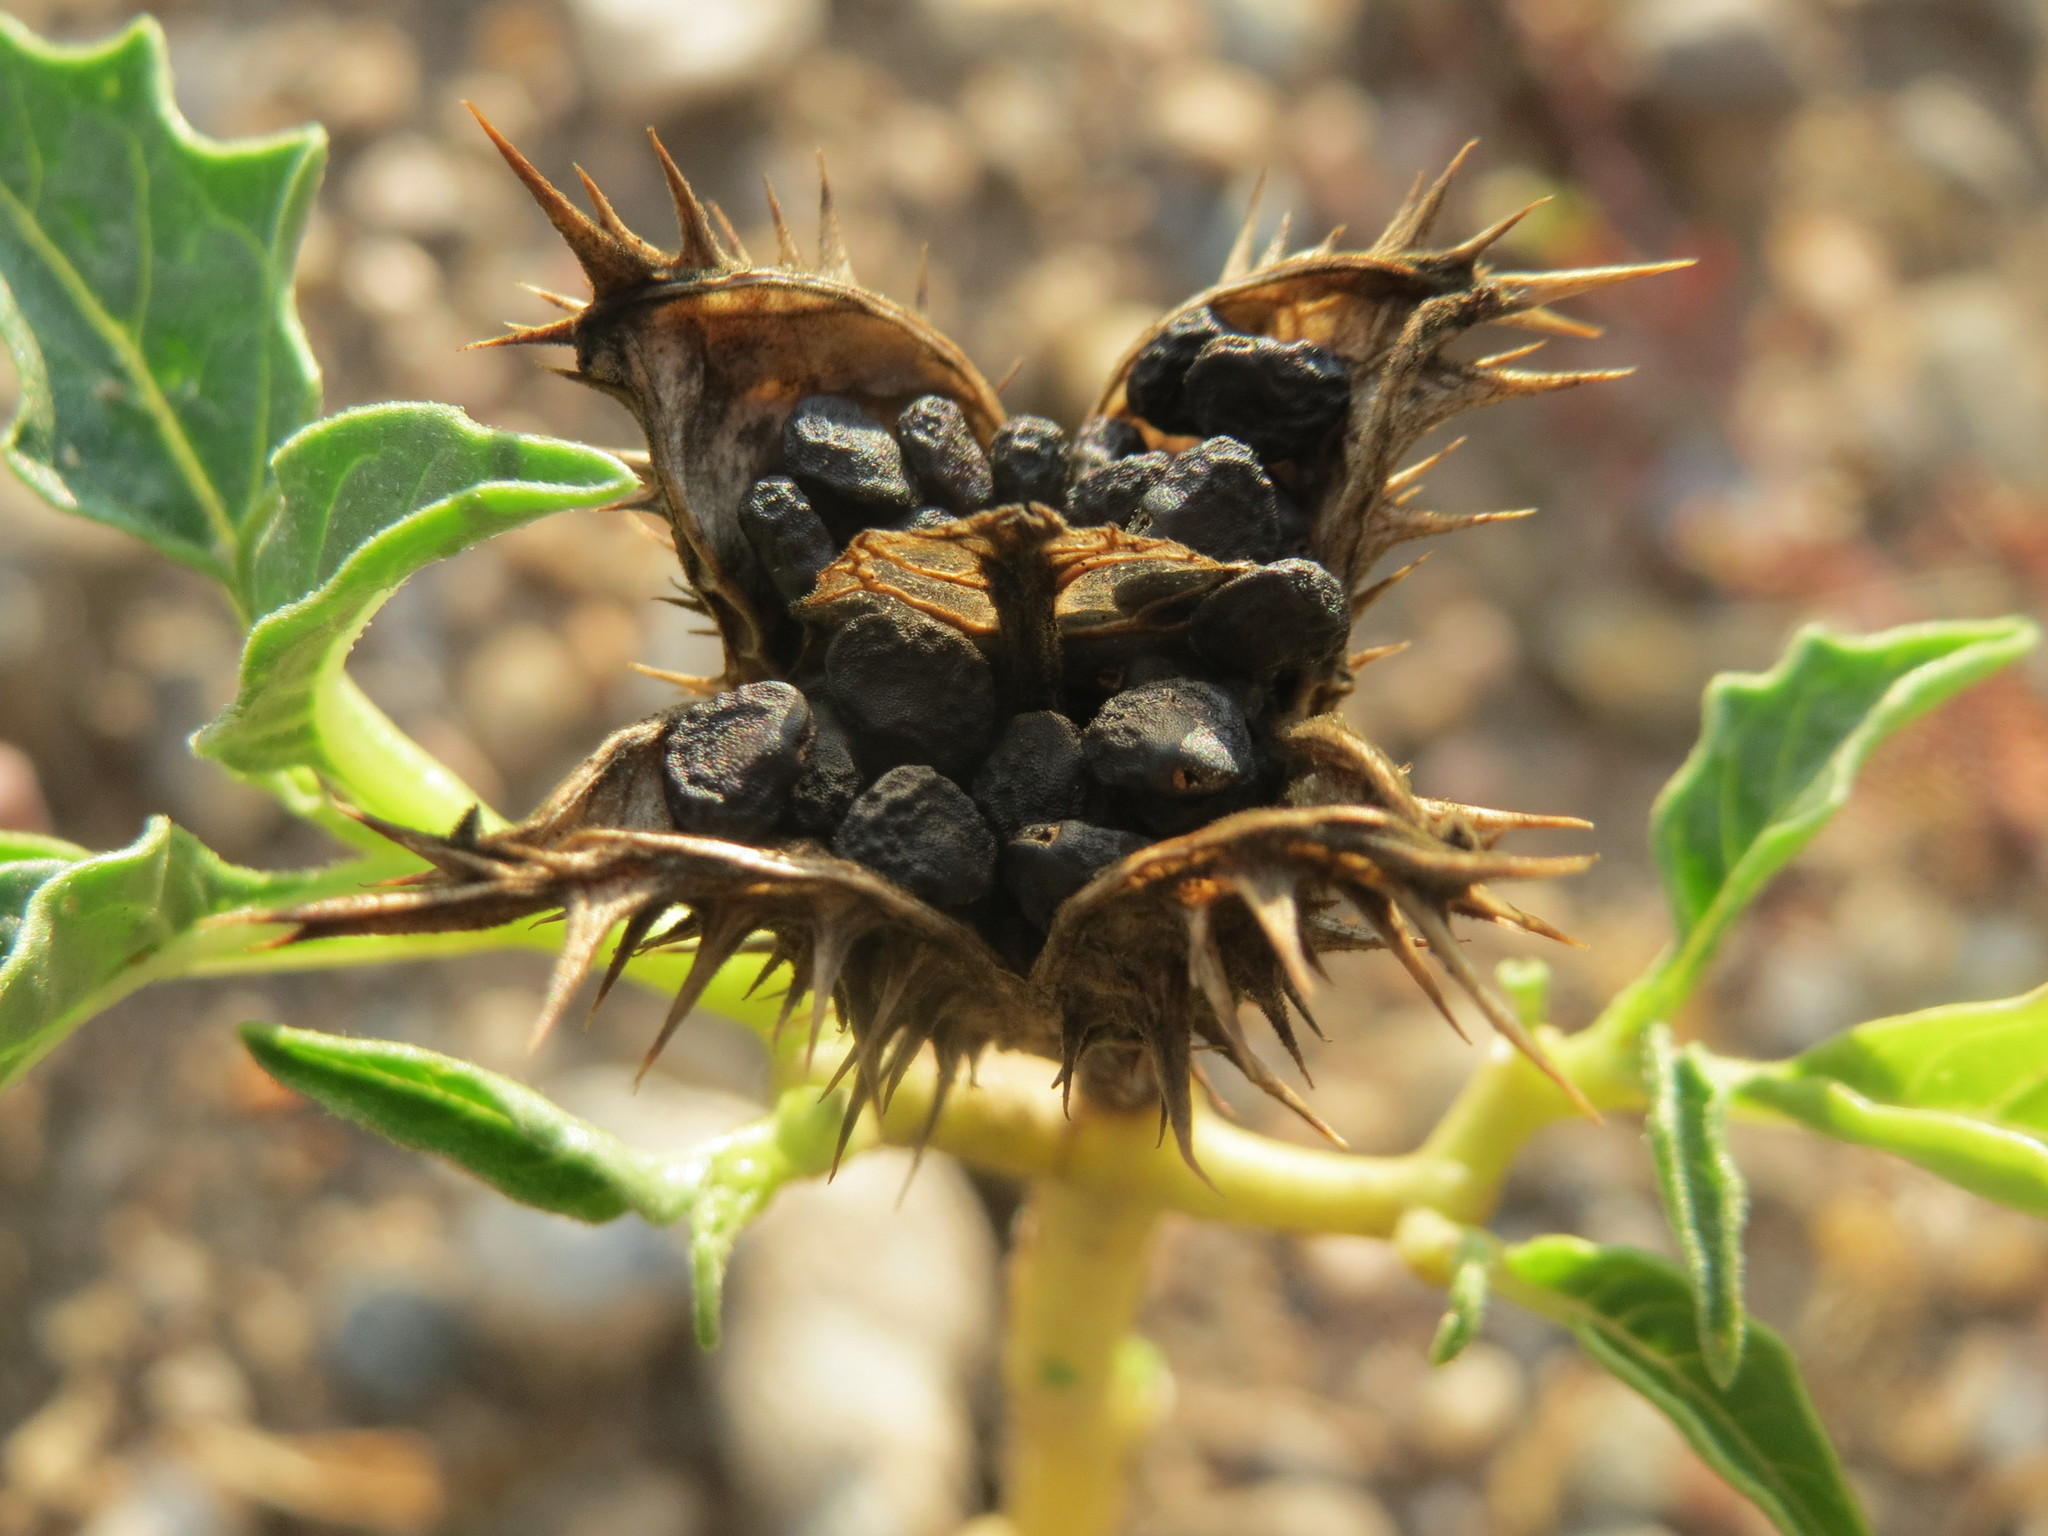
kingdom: Plantae
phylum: Tracheophyta
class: Magnoliopsida
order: Solanales
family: Solanaceae
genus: Datura
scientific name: Datura stramonium
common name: Thorn-apple
